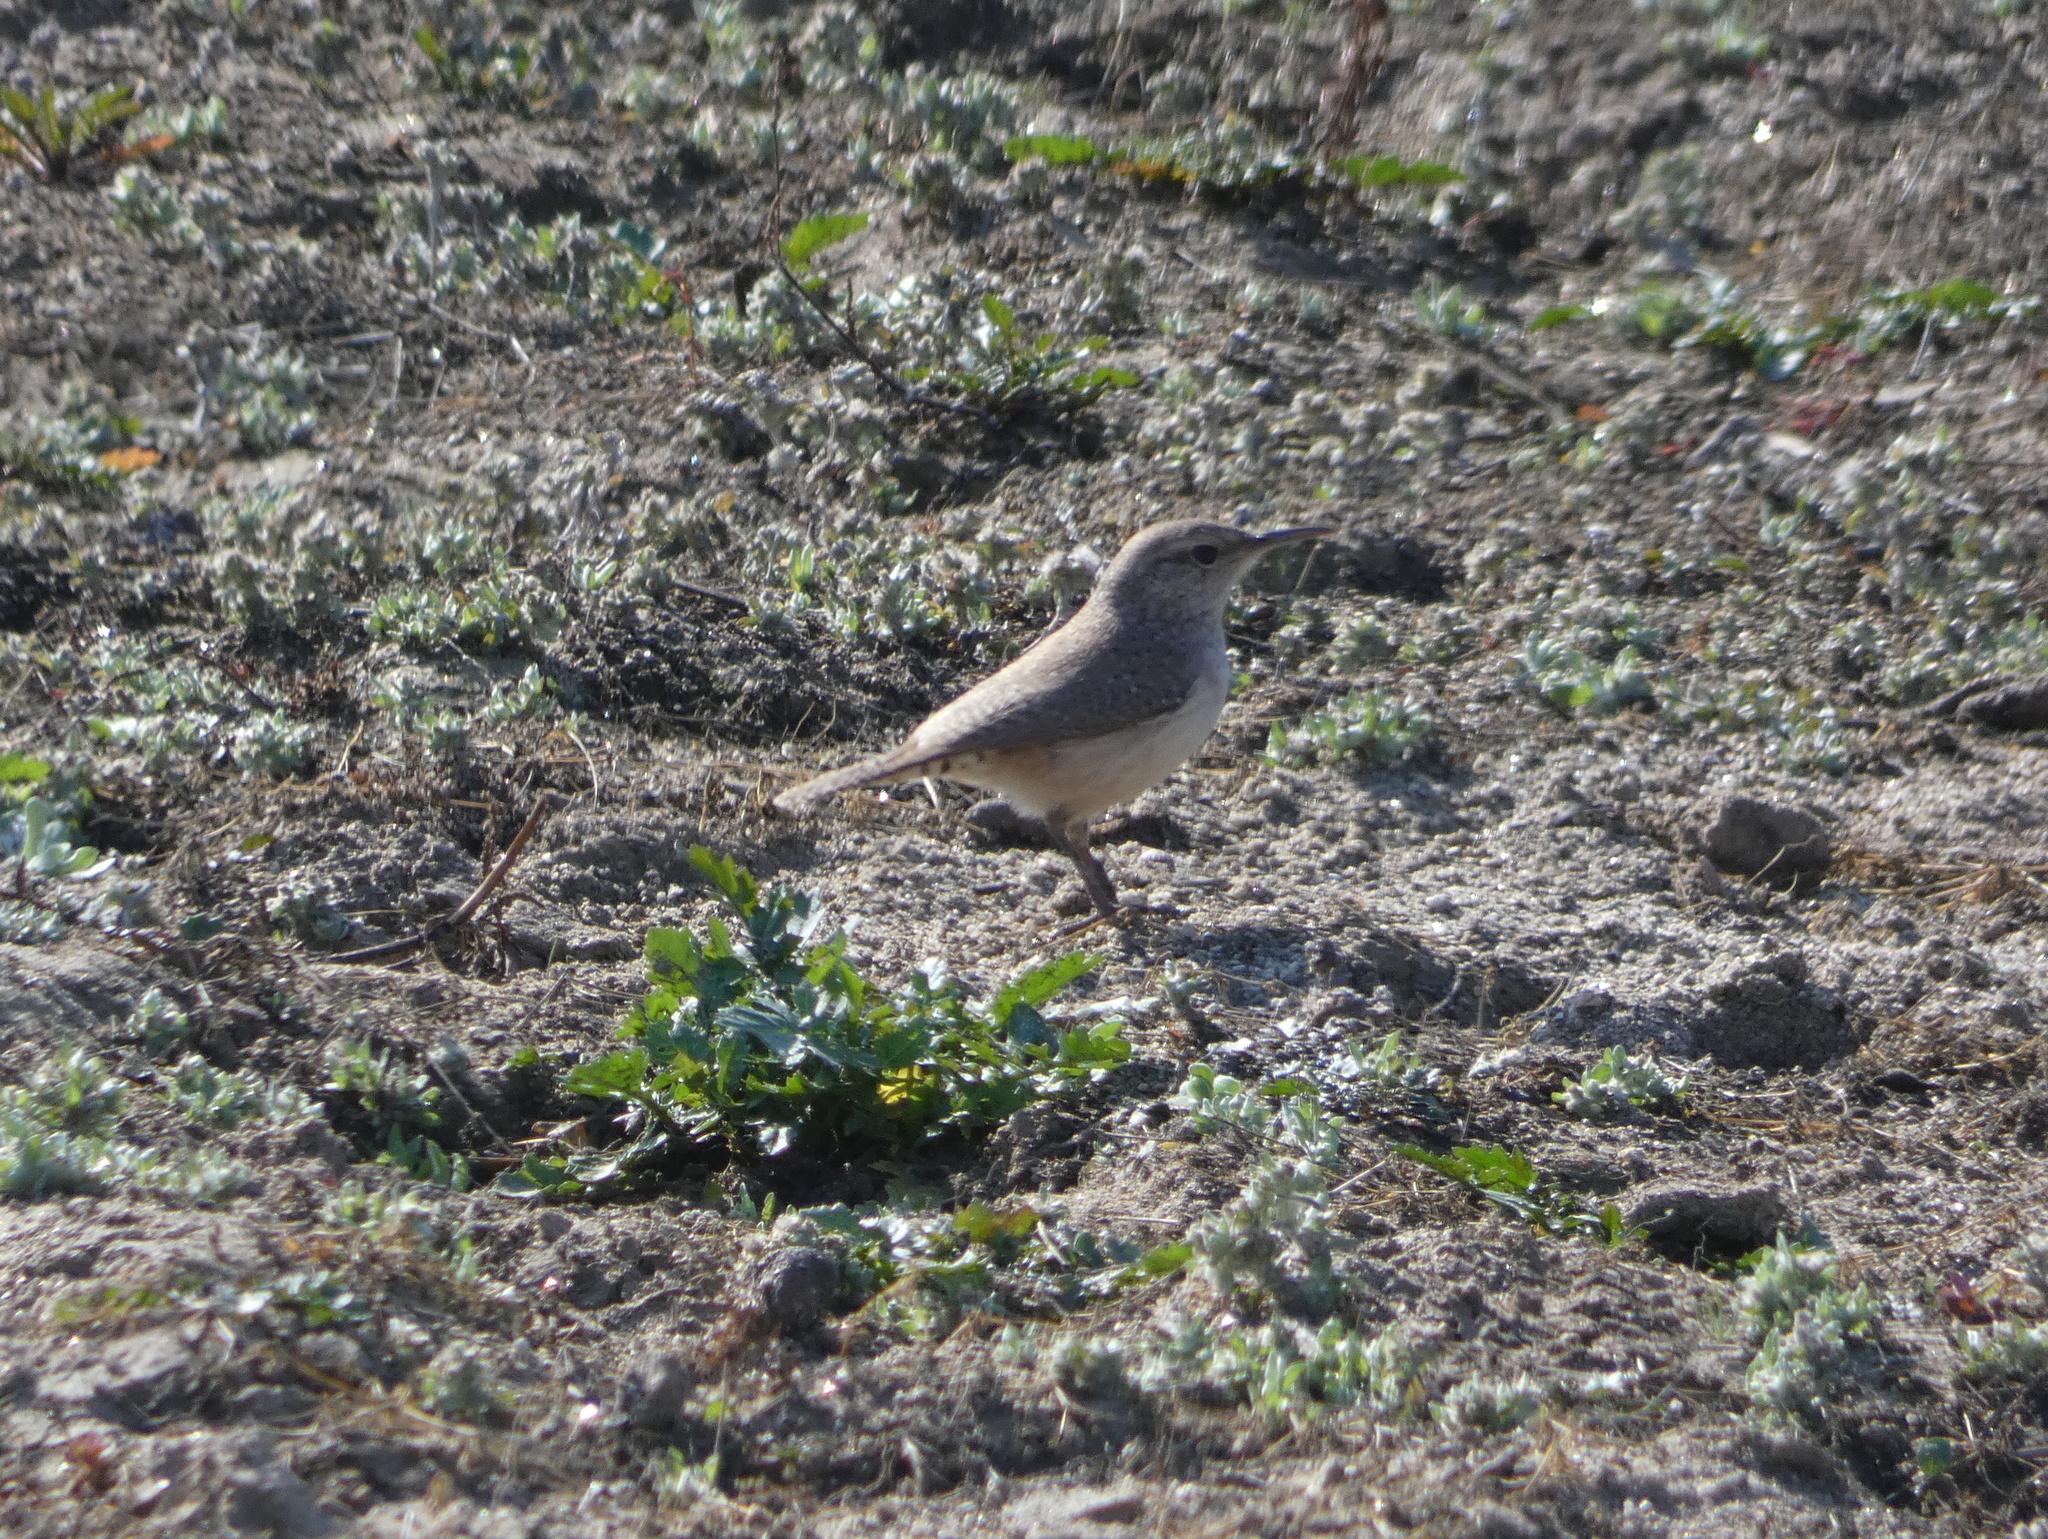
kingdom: Animalia
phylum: Chordata
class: Aves
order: Passeriformes
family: Troglodytidae
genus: Salpinctes
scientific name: Salpinctes obsoletus
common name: Rock wren
